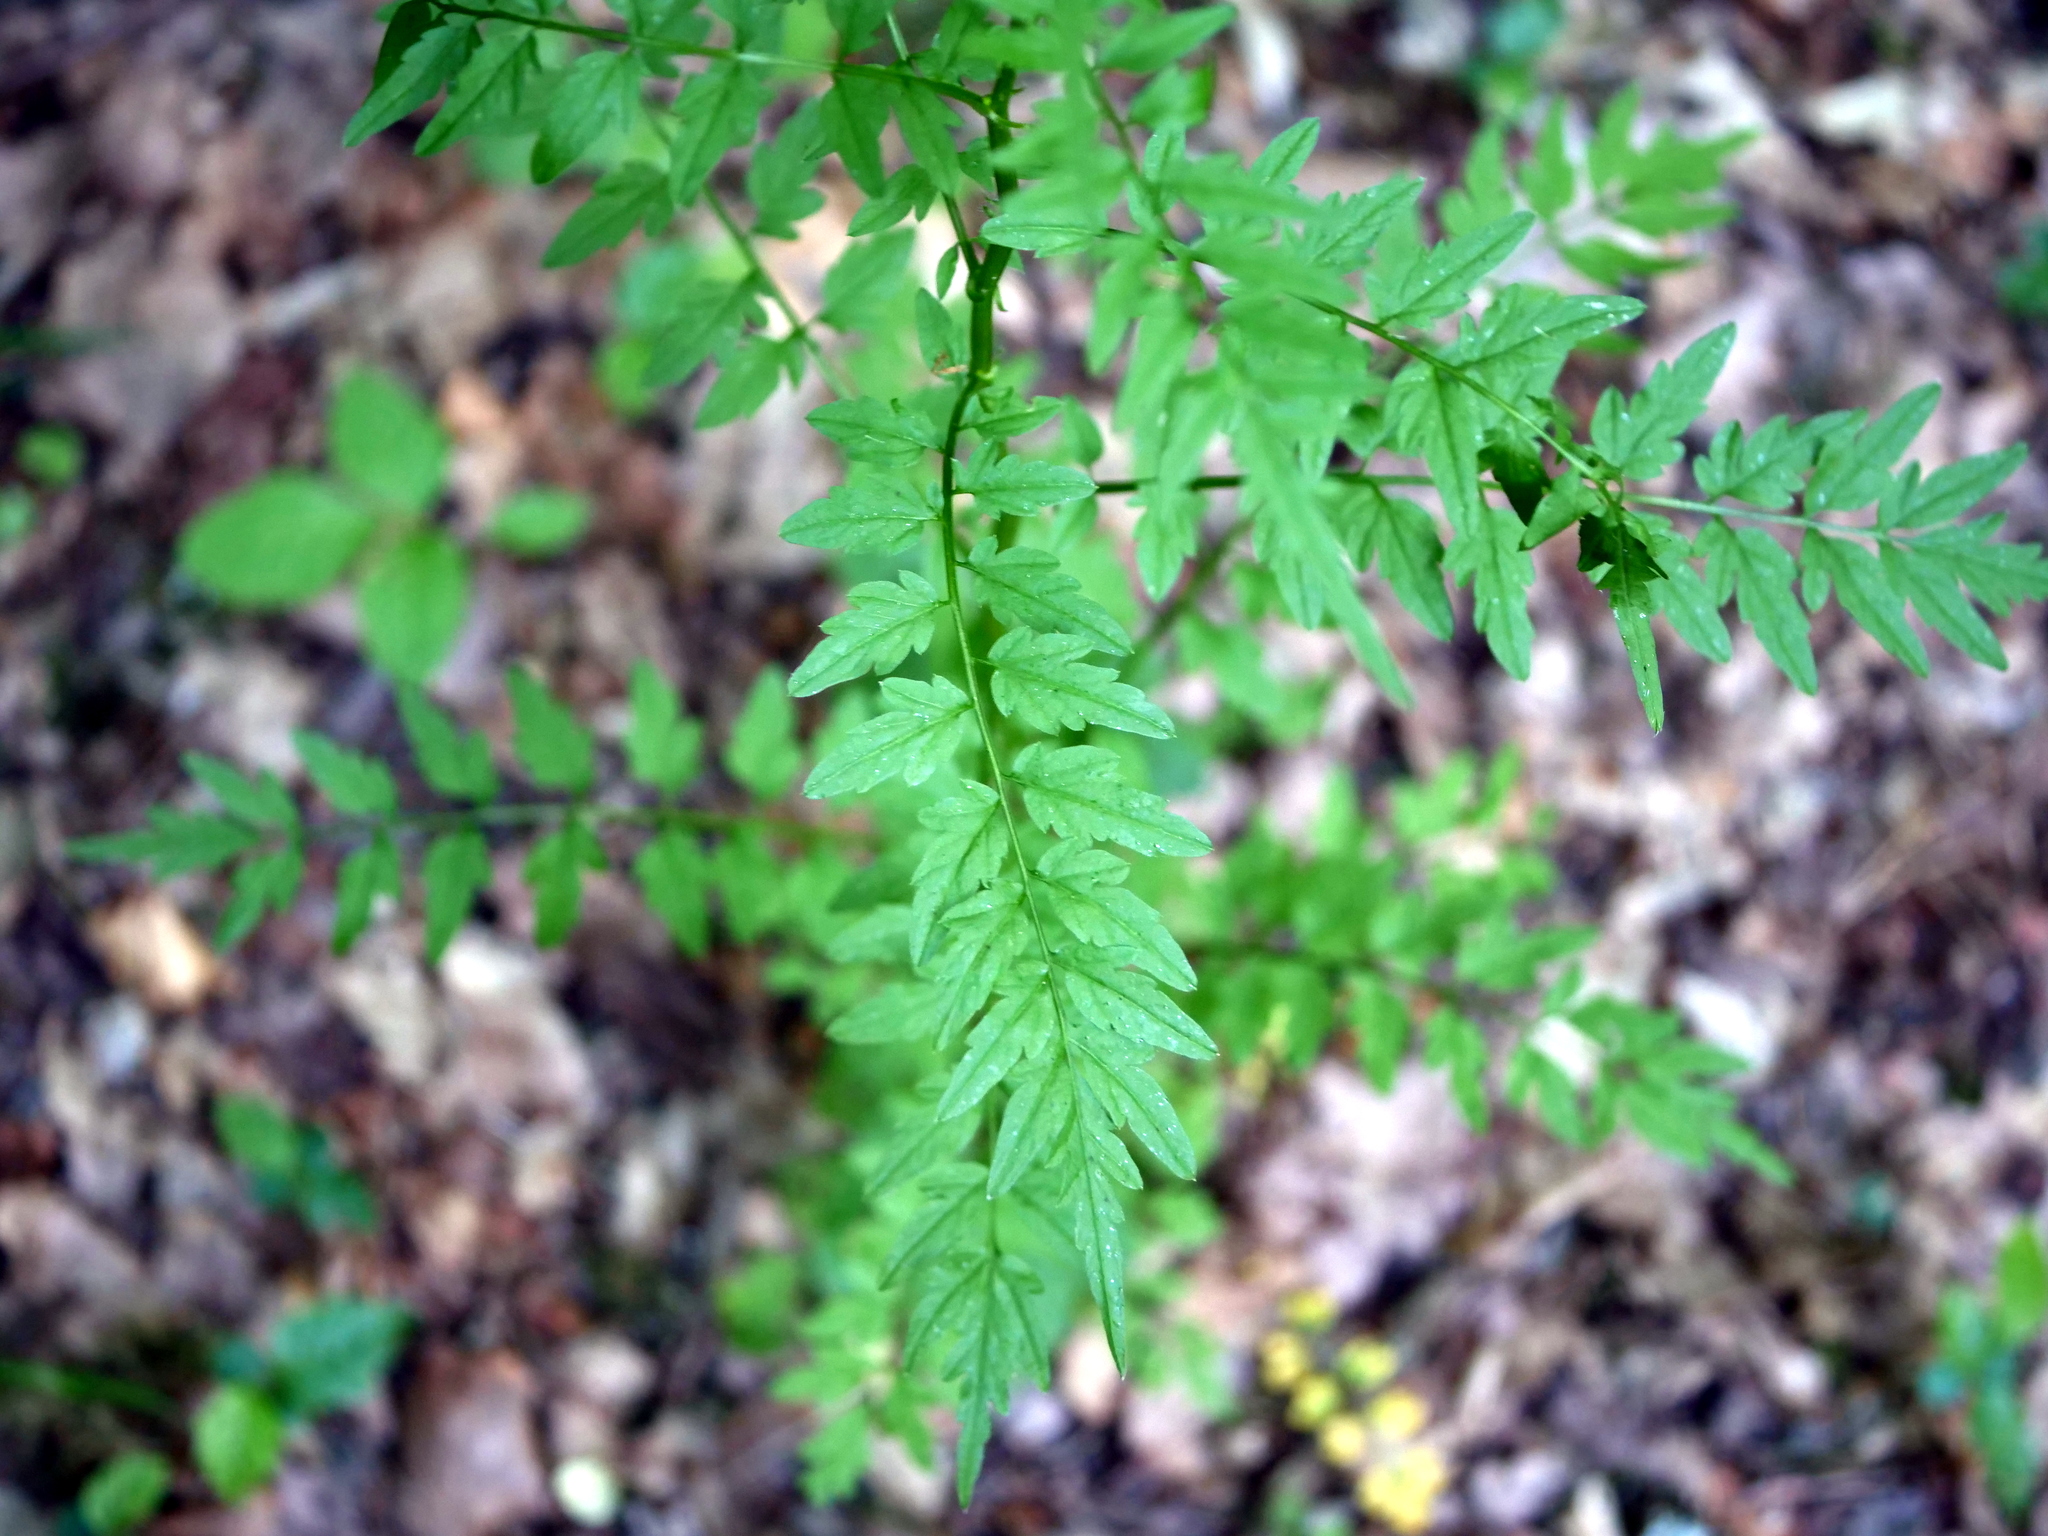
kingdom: Plantae
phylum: Tracheophyta
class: Magnoliopsida
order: Brassicales
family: Brassicaceae
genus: Cardamine
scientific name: Cardamine impatiens
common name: Narrow-leaved bitter-cress
